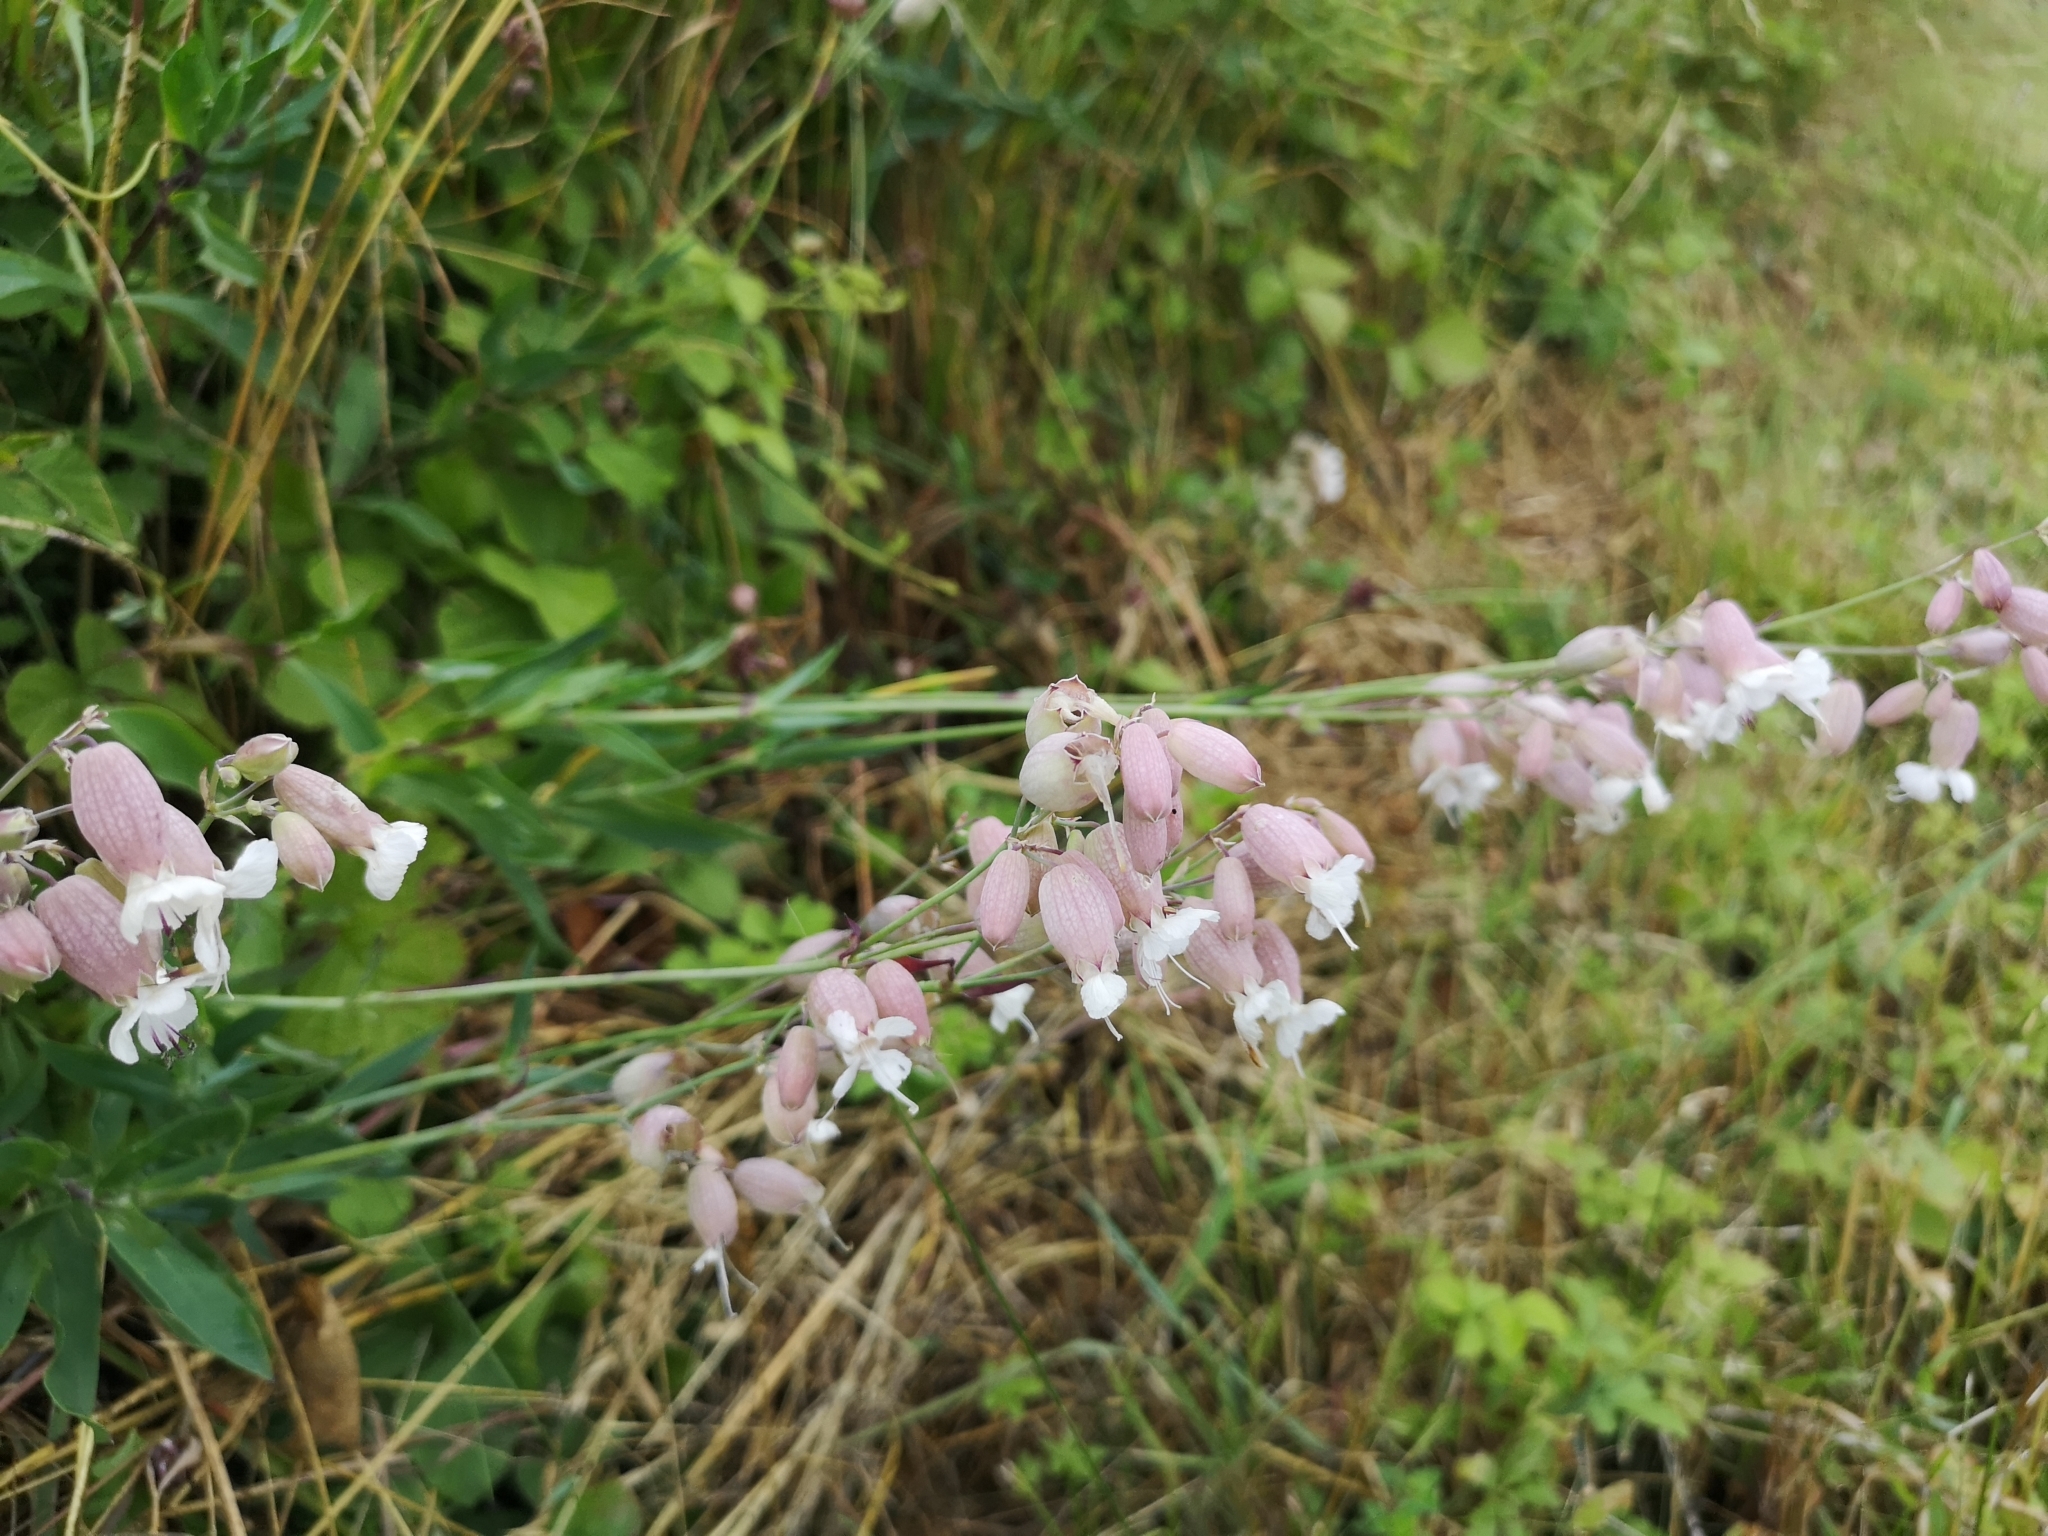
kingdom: Plantae
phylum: Tracheophyta
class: Magnoliopsida
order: Caryophyllales
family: Caryophyllaceae
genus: Silene
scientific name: Silene vulgaris
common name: Bladder campion
